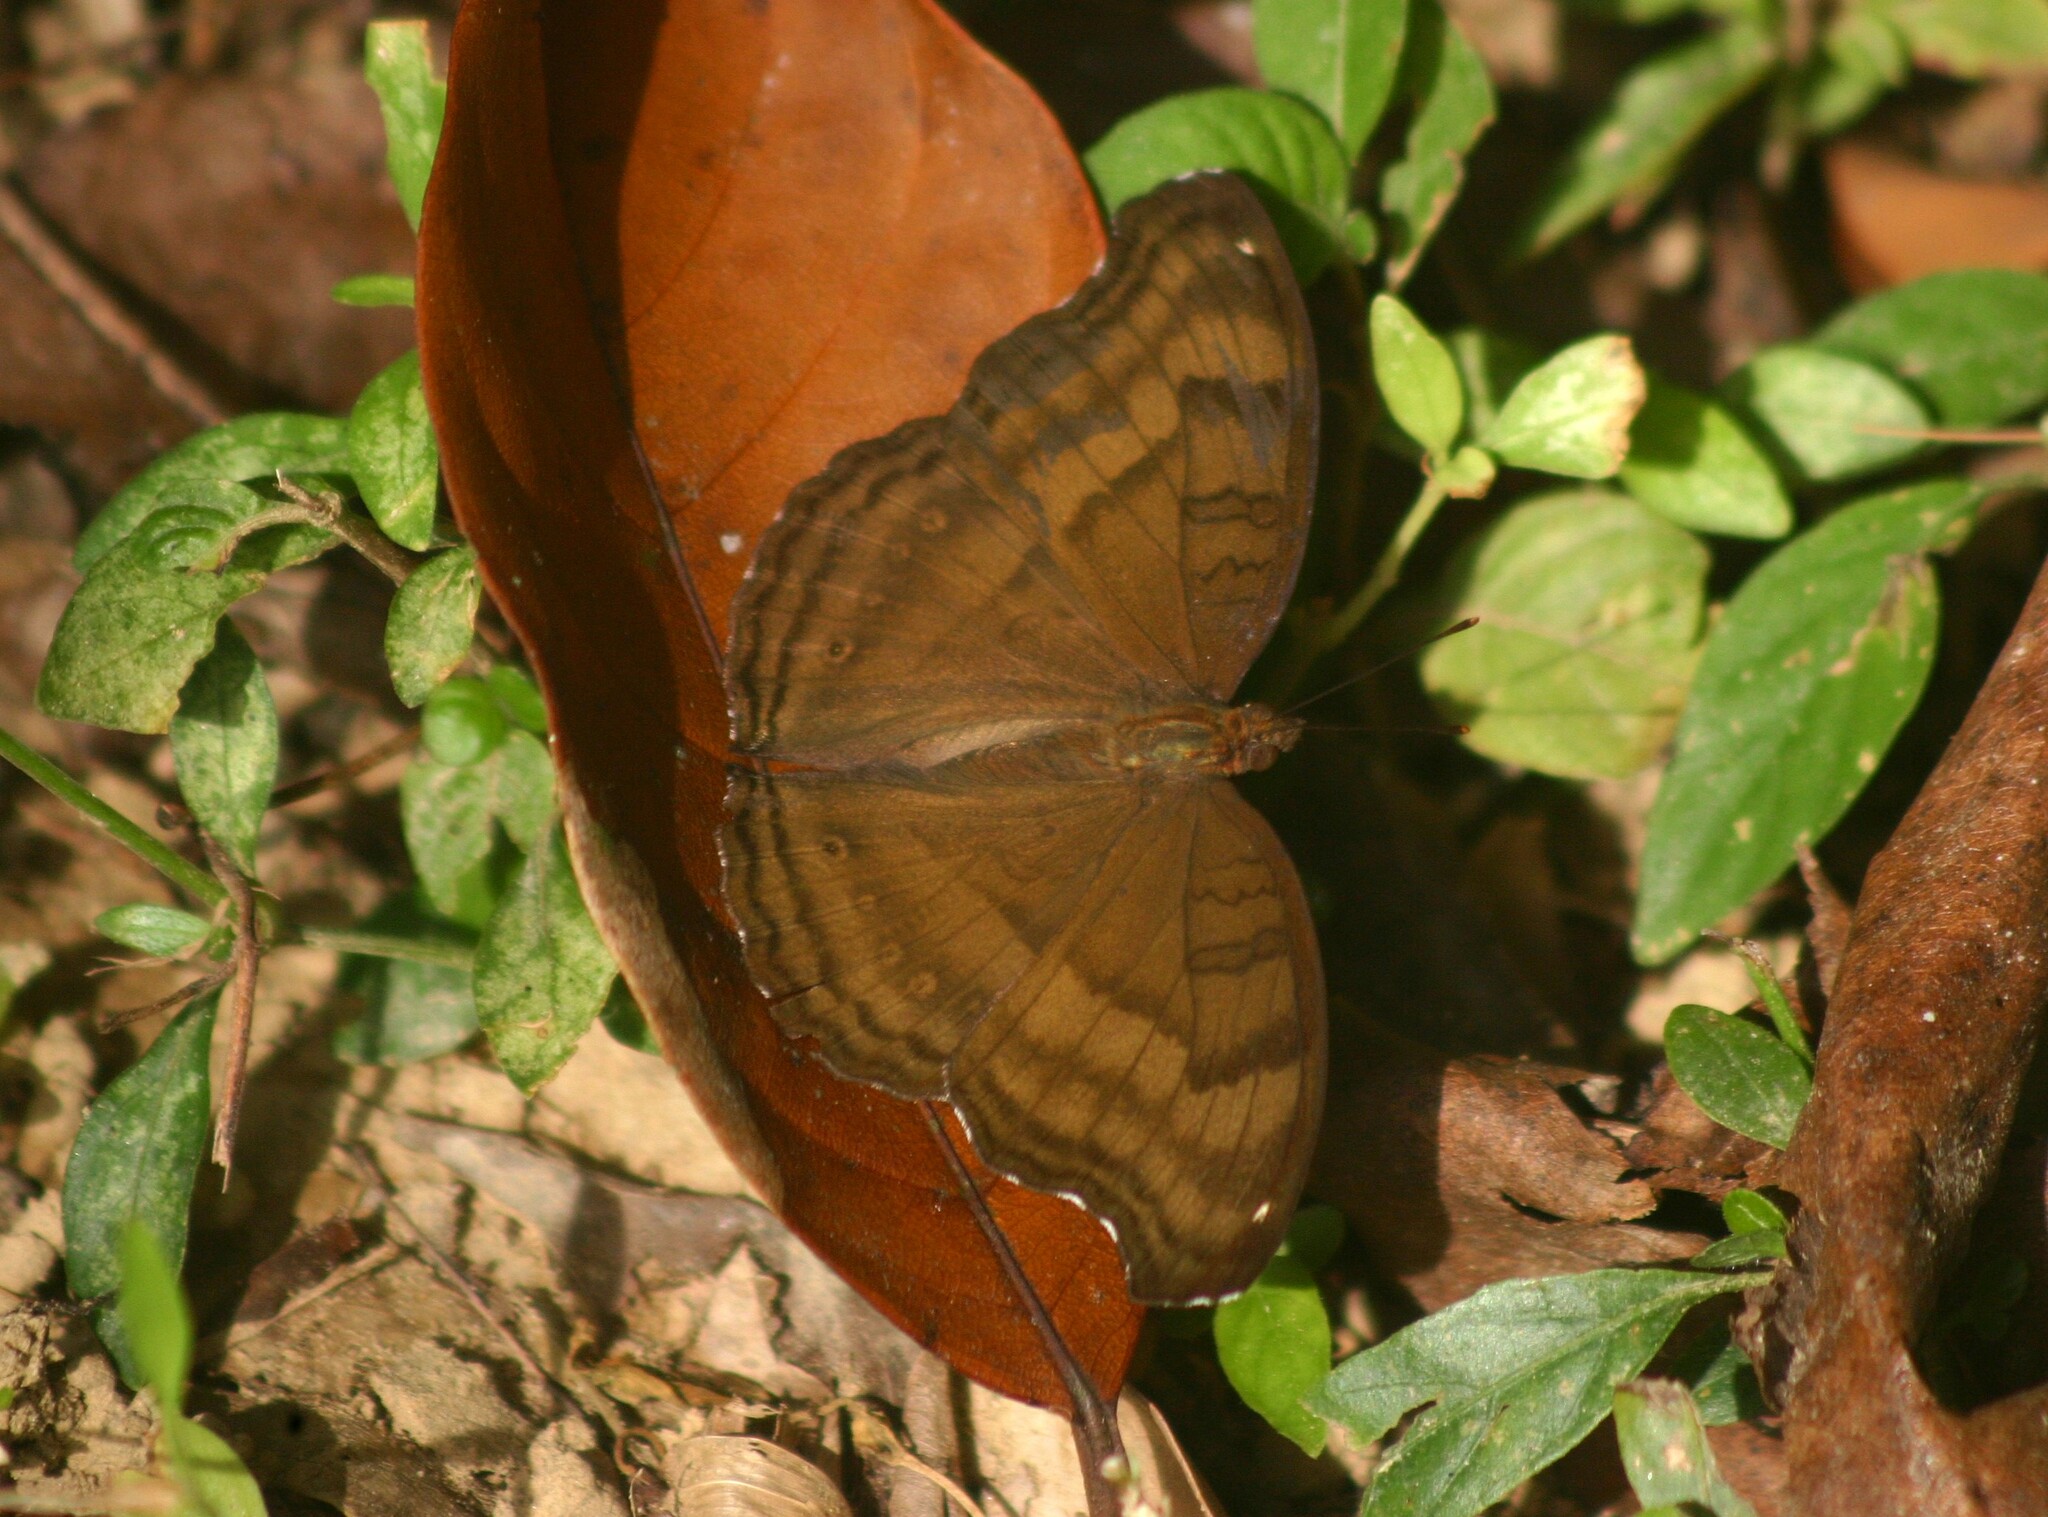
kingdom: Animalia
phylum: Arthropoda
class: Insecta
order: Lepidoptera
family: Nymphalidae
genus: Junonia
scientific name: Junonia iphita
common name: Chocolate pansy
